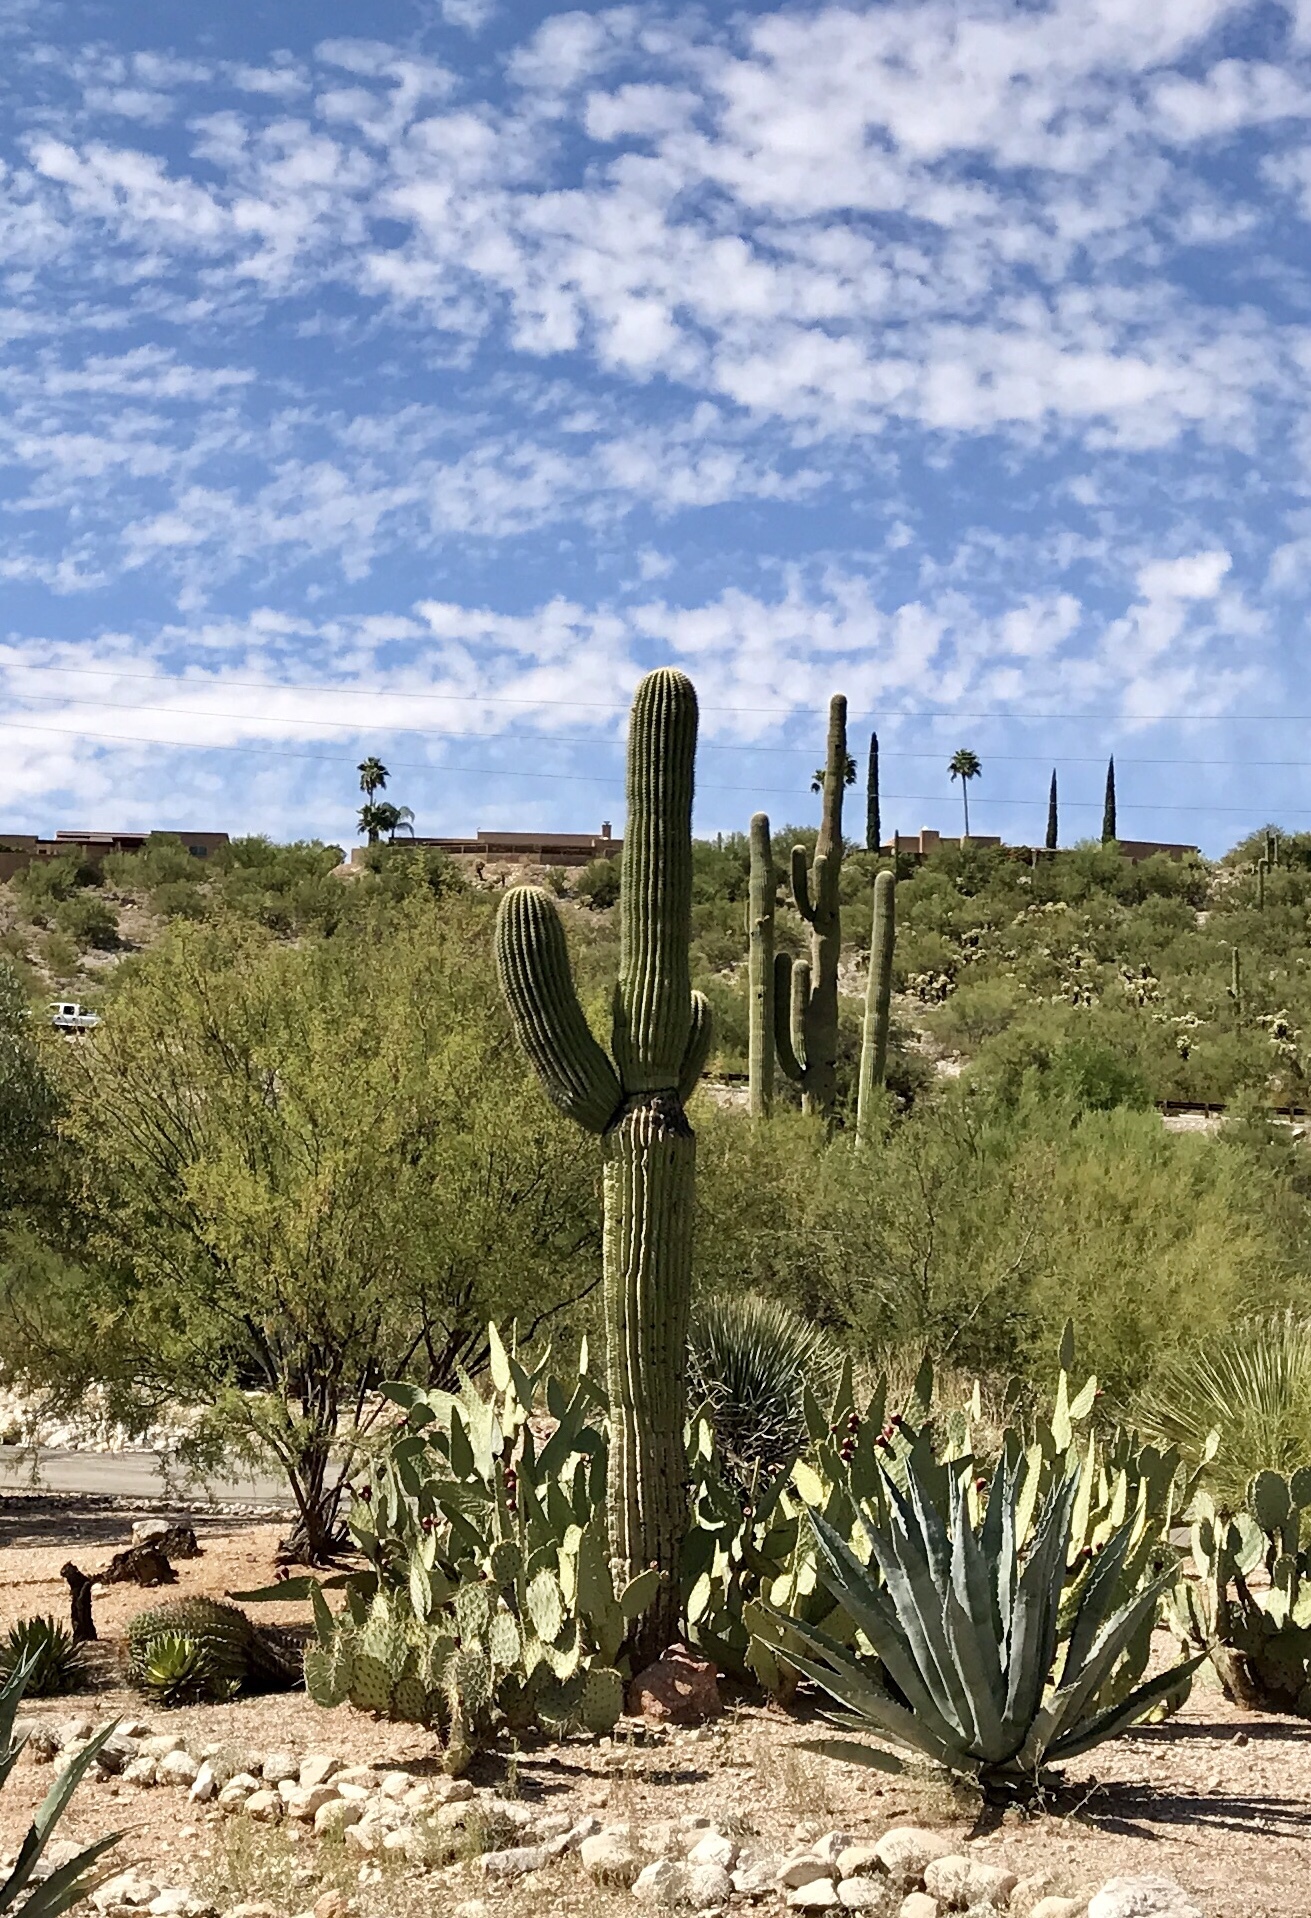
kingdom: Plantae
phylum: Tracheophyta
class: Magnoliopsida
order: Caryophyllales
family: Cactaceae
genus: Carnegiea
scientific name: Carnegiea gigantea
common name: Saguaro
